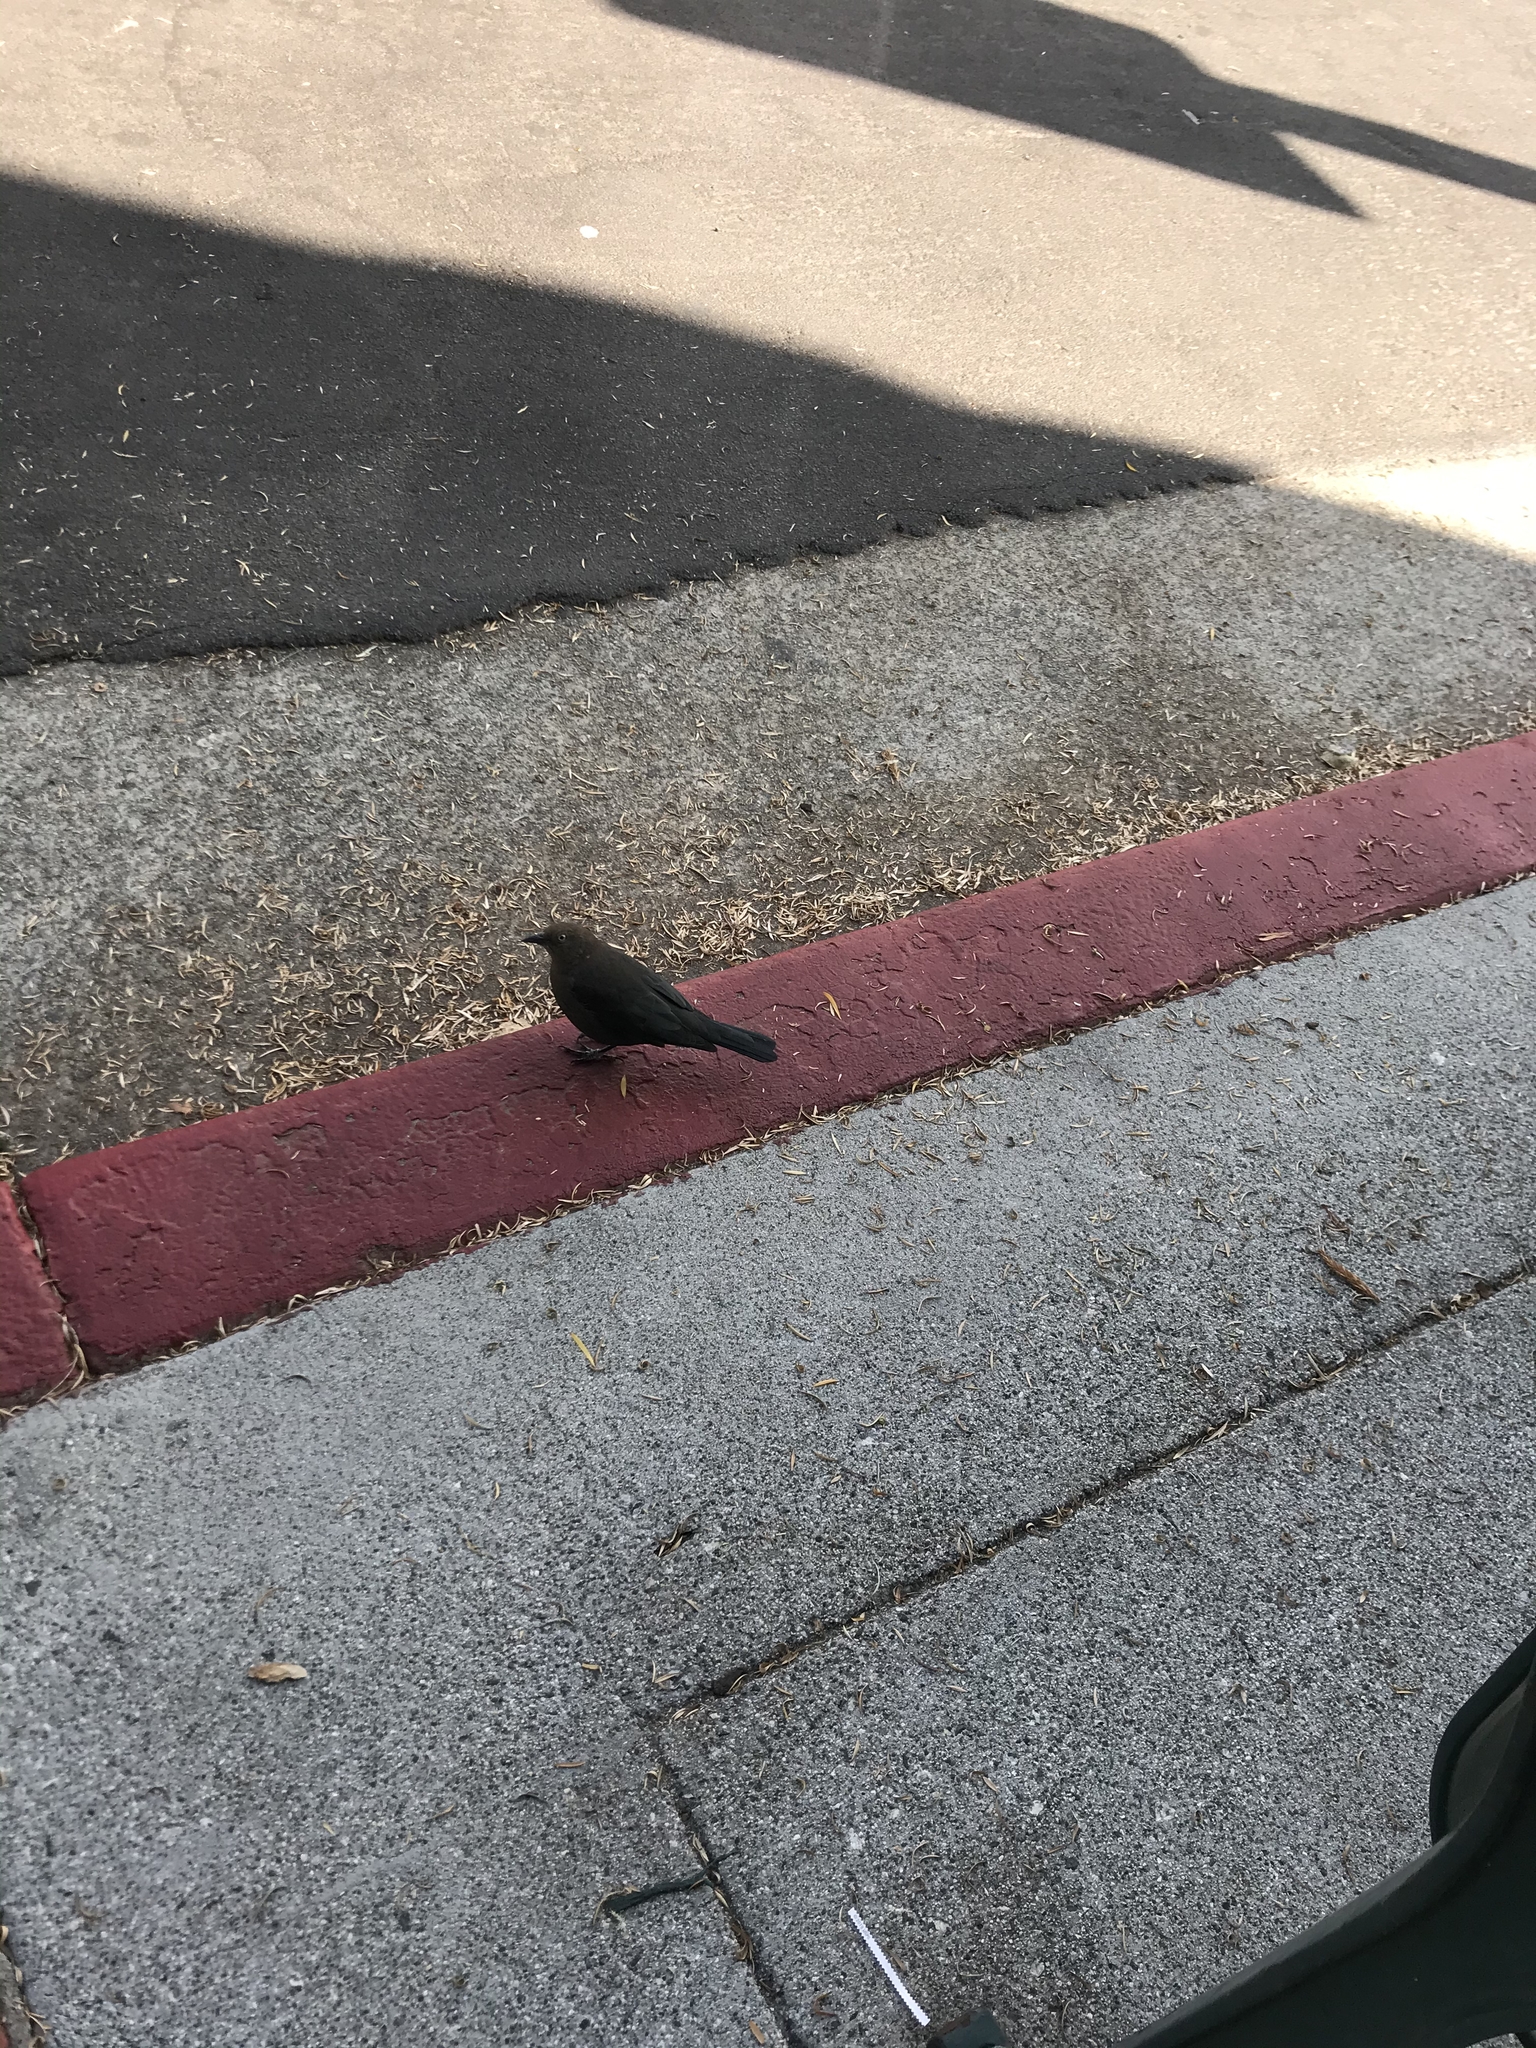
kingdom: Animalia
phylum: Chordata
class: Aves
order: Passeriformes
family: Icteridae
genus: Euphagus
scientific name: Euphagus cyanocephalus
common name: Brewer's blackbird
